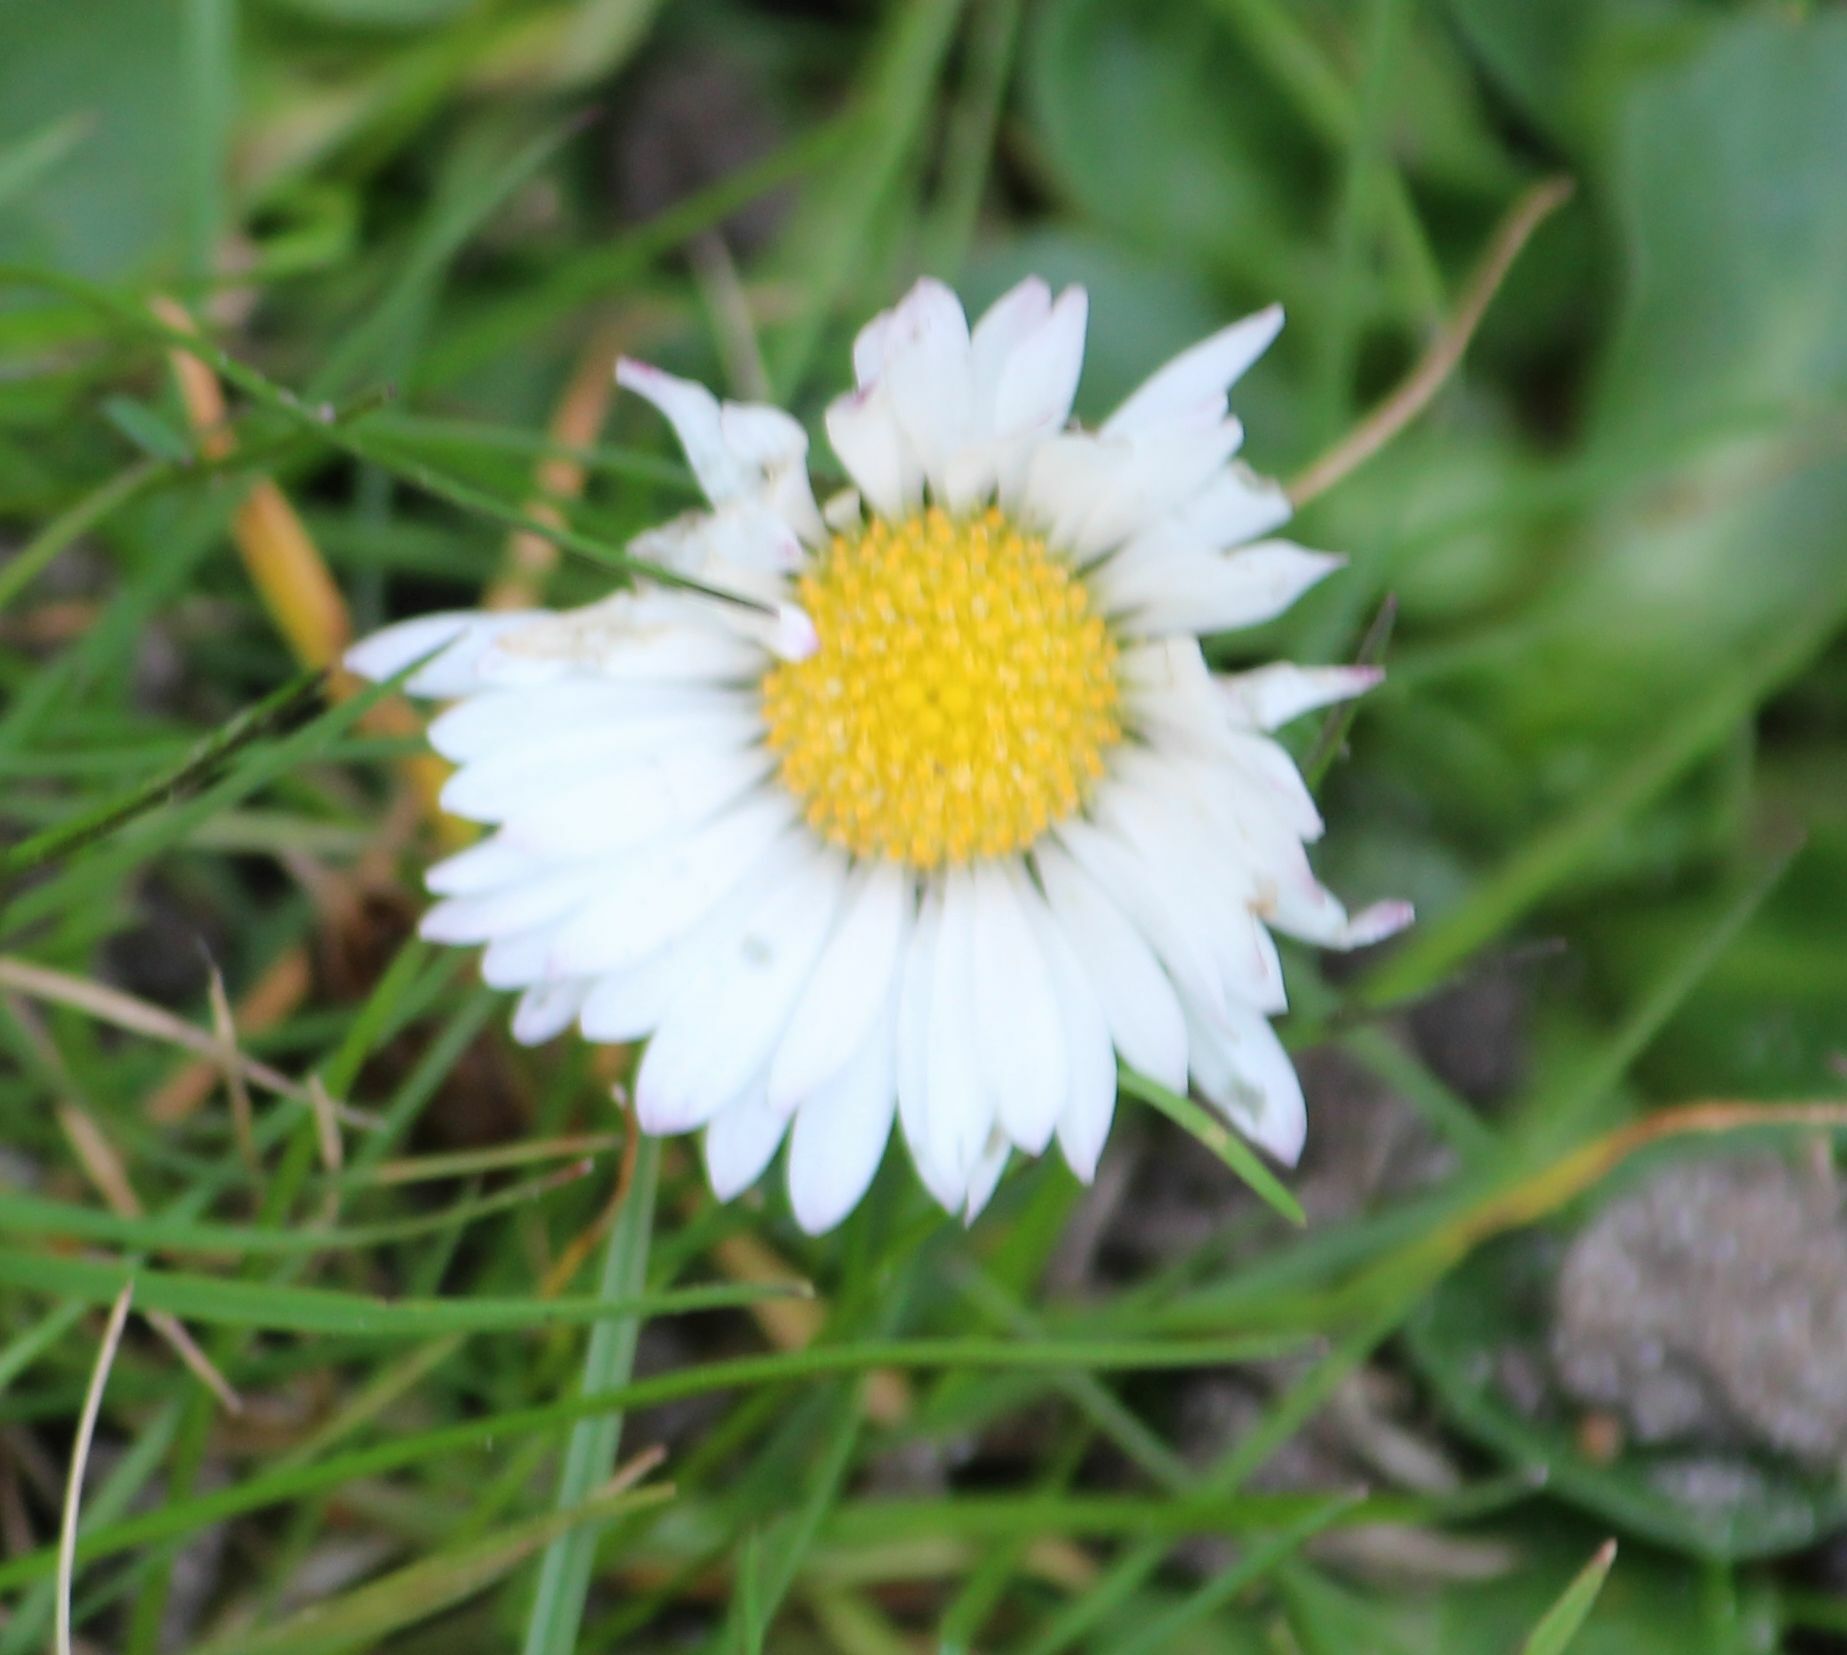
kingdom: Plantae
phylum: Tracheophyta
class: Magnoliopsida
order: Asterales
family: Asteraceae
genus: Bellis
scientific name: Bellis perennis
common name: Lawndaisy
